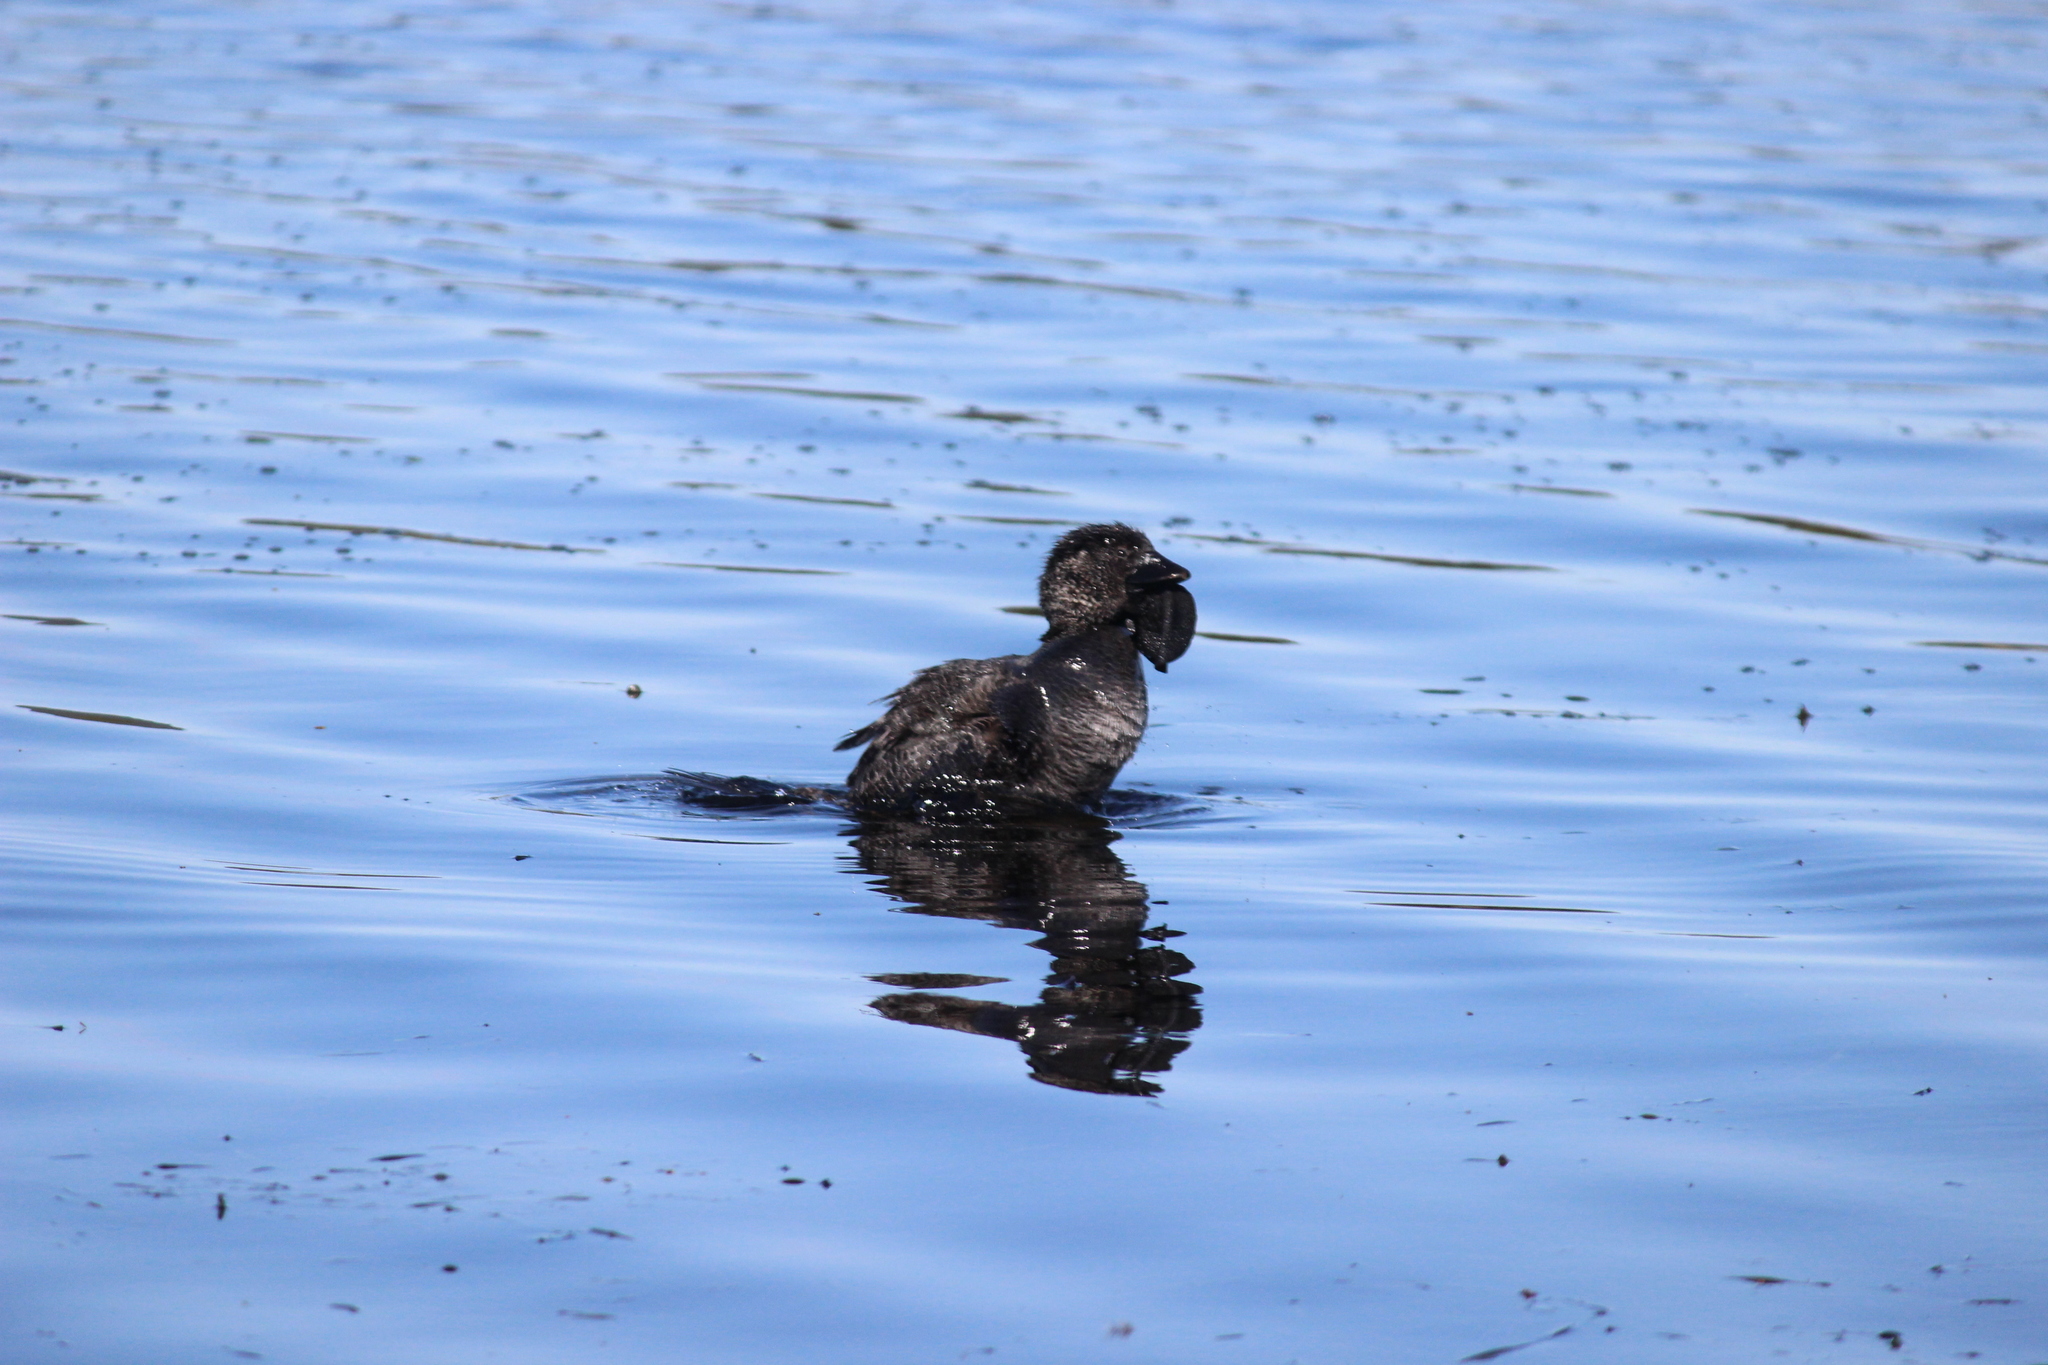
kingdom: Animalia
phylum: Chordata
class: Aves
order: Anseriformes
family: Anatidae
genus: Biziura
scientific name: Biziura lobata
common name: Musk duck
